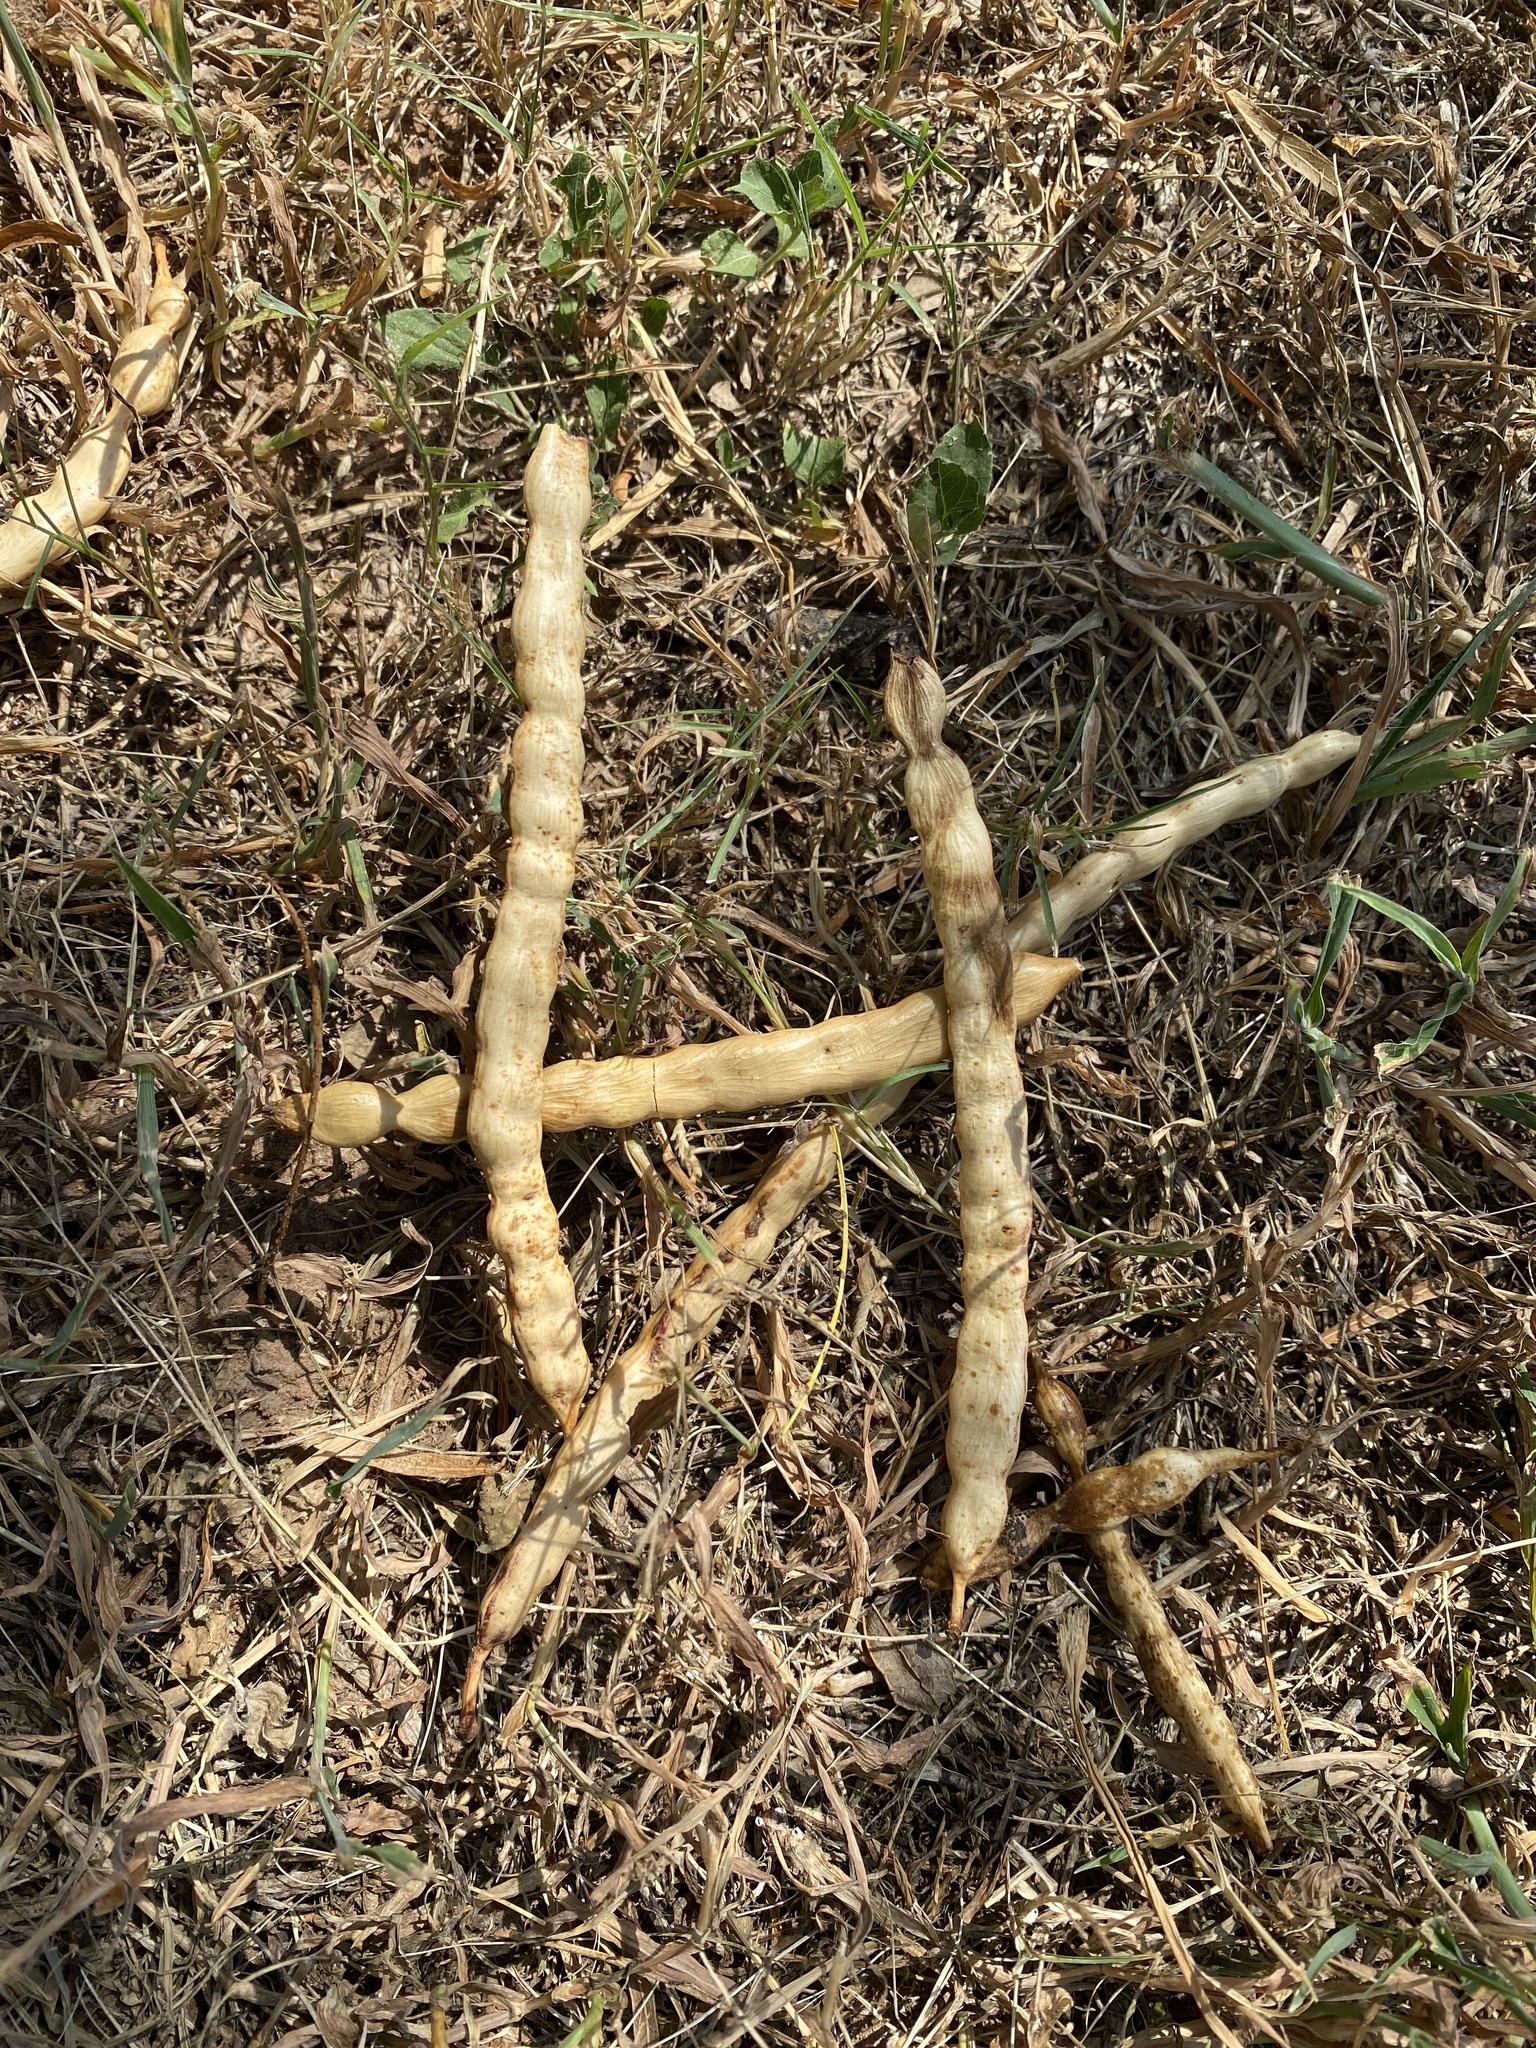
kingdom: Plantae
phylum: Tracheophyta
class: Magnoliopsida
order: Fabales
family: Fabaceae
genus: Prosopis
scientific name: Prosopis glandulosa
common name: Honey mesquite
